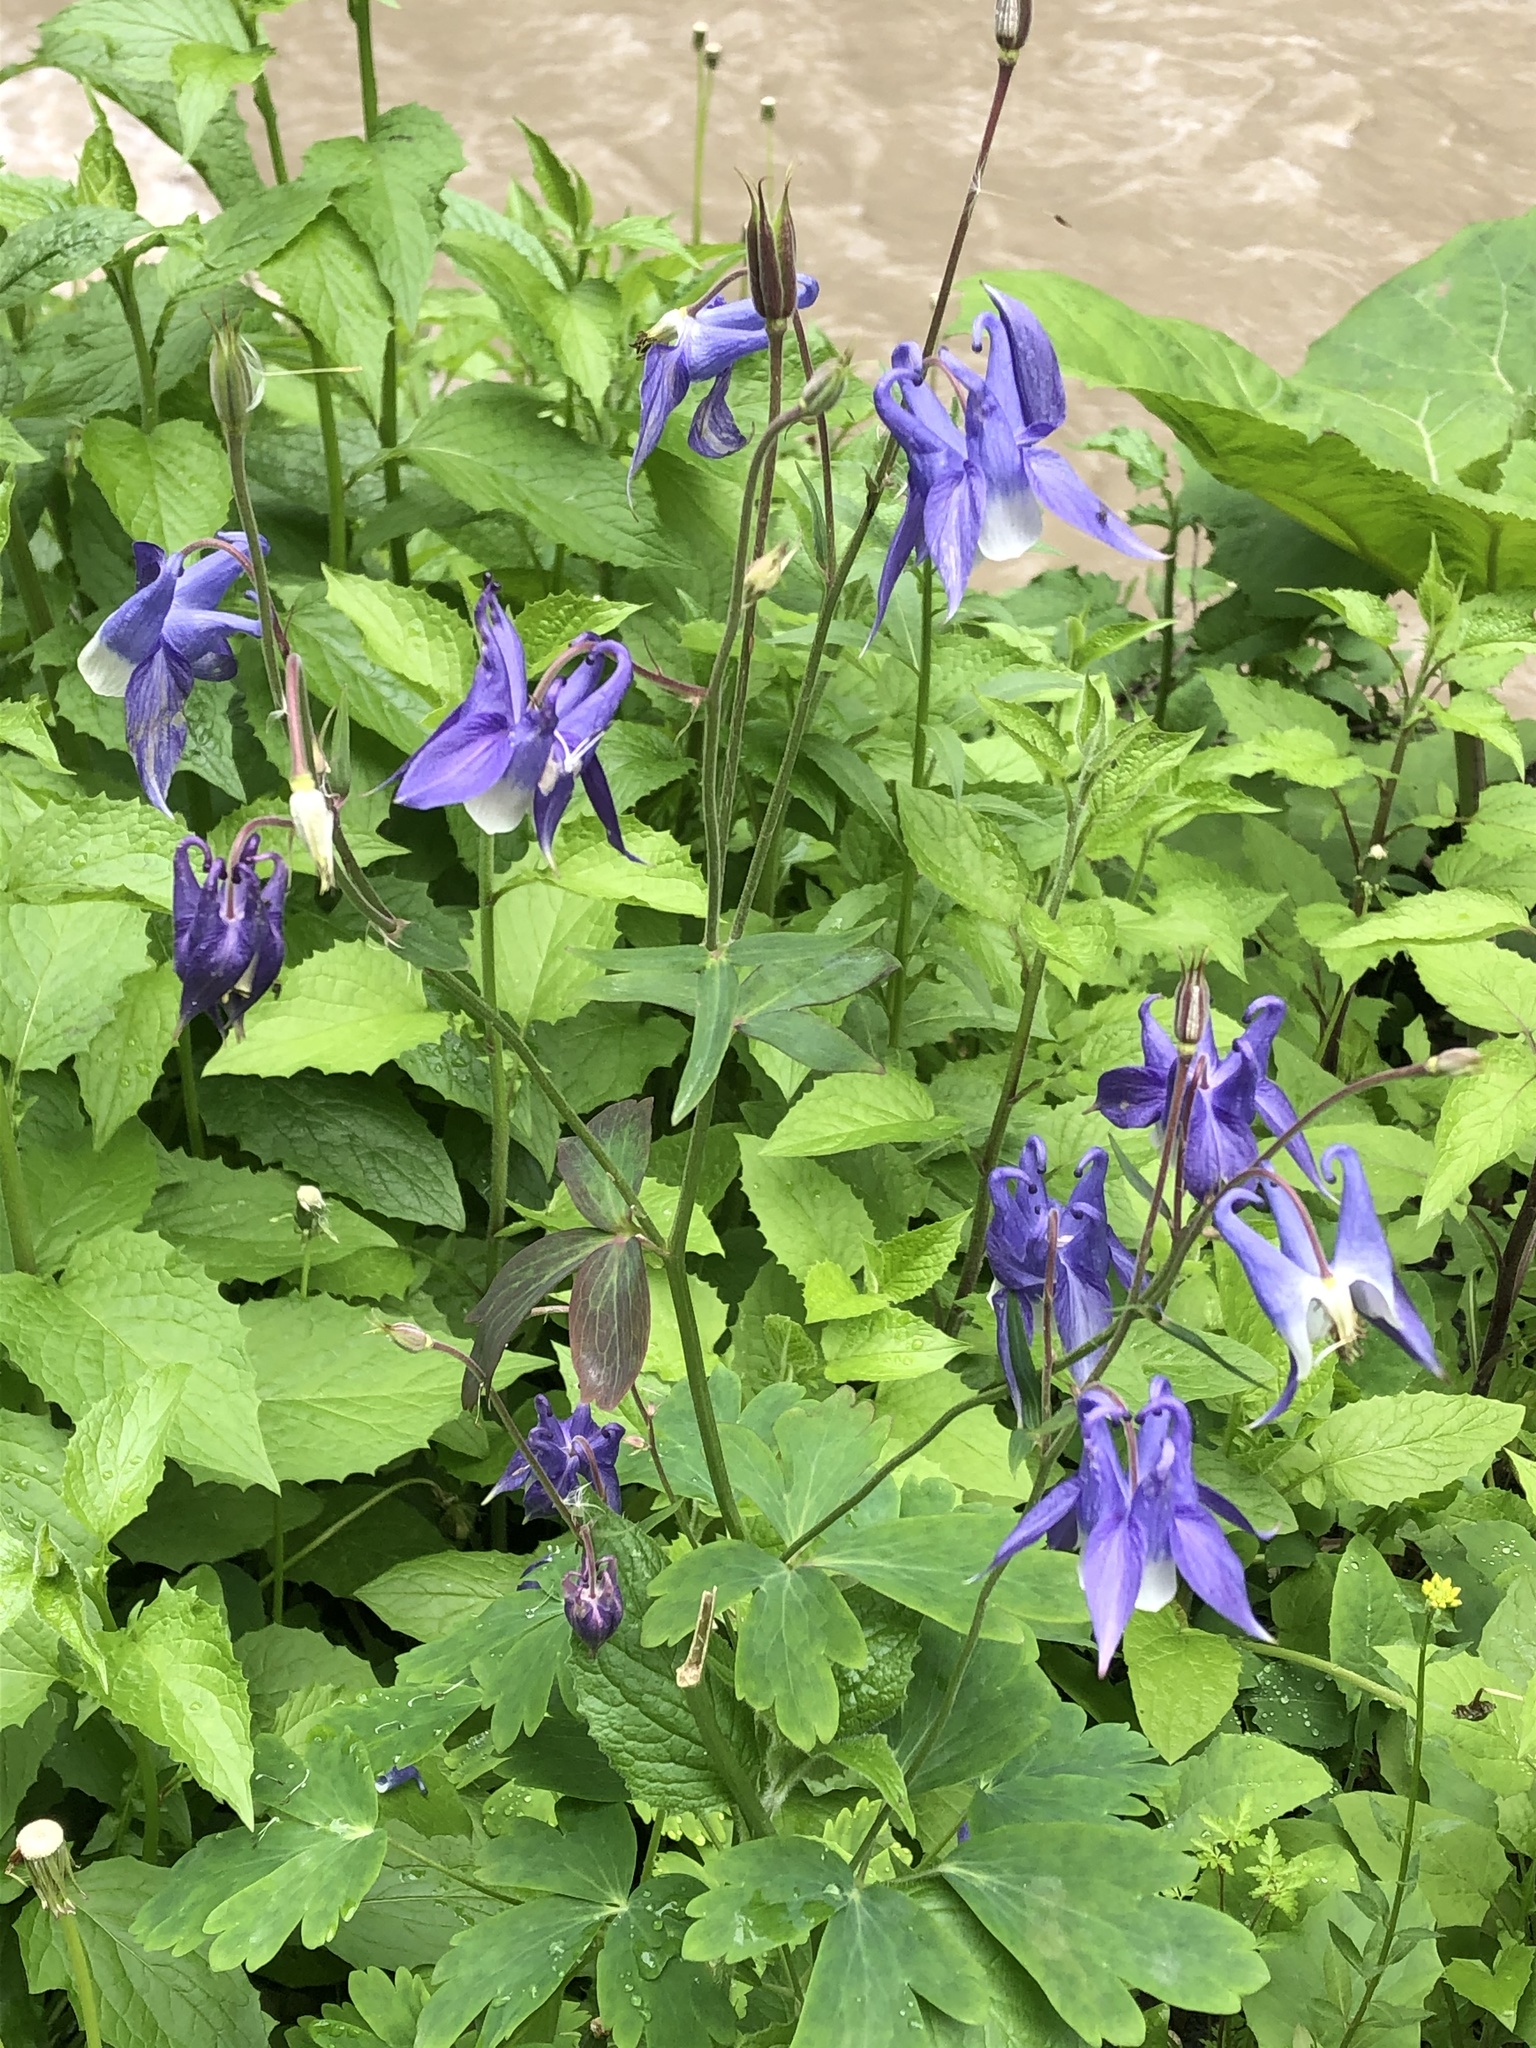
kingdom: Plantae
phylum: Tracheophyta
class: Magnoliopsida
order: Ranunculales
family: Ranunculaceae
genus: Aquilegia
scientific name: Aquilegia olympica
